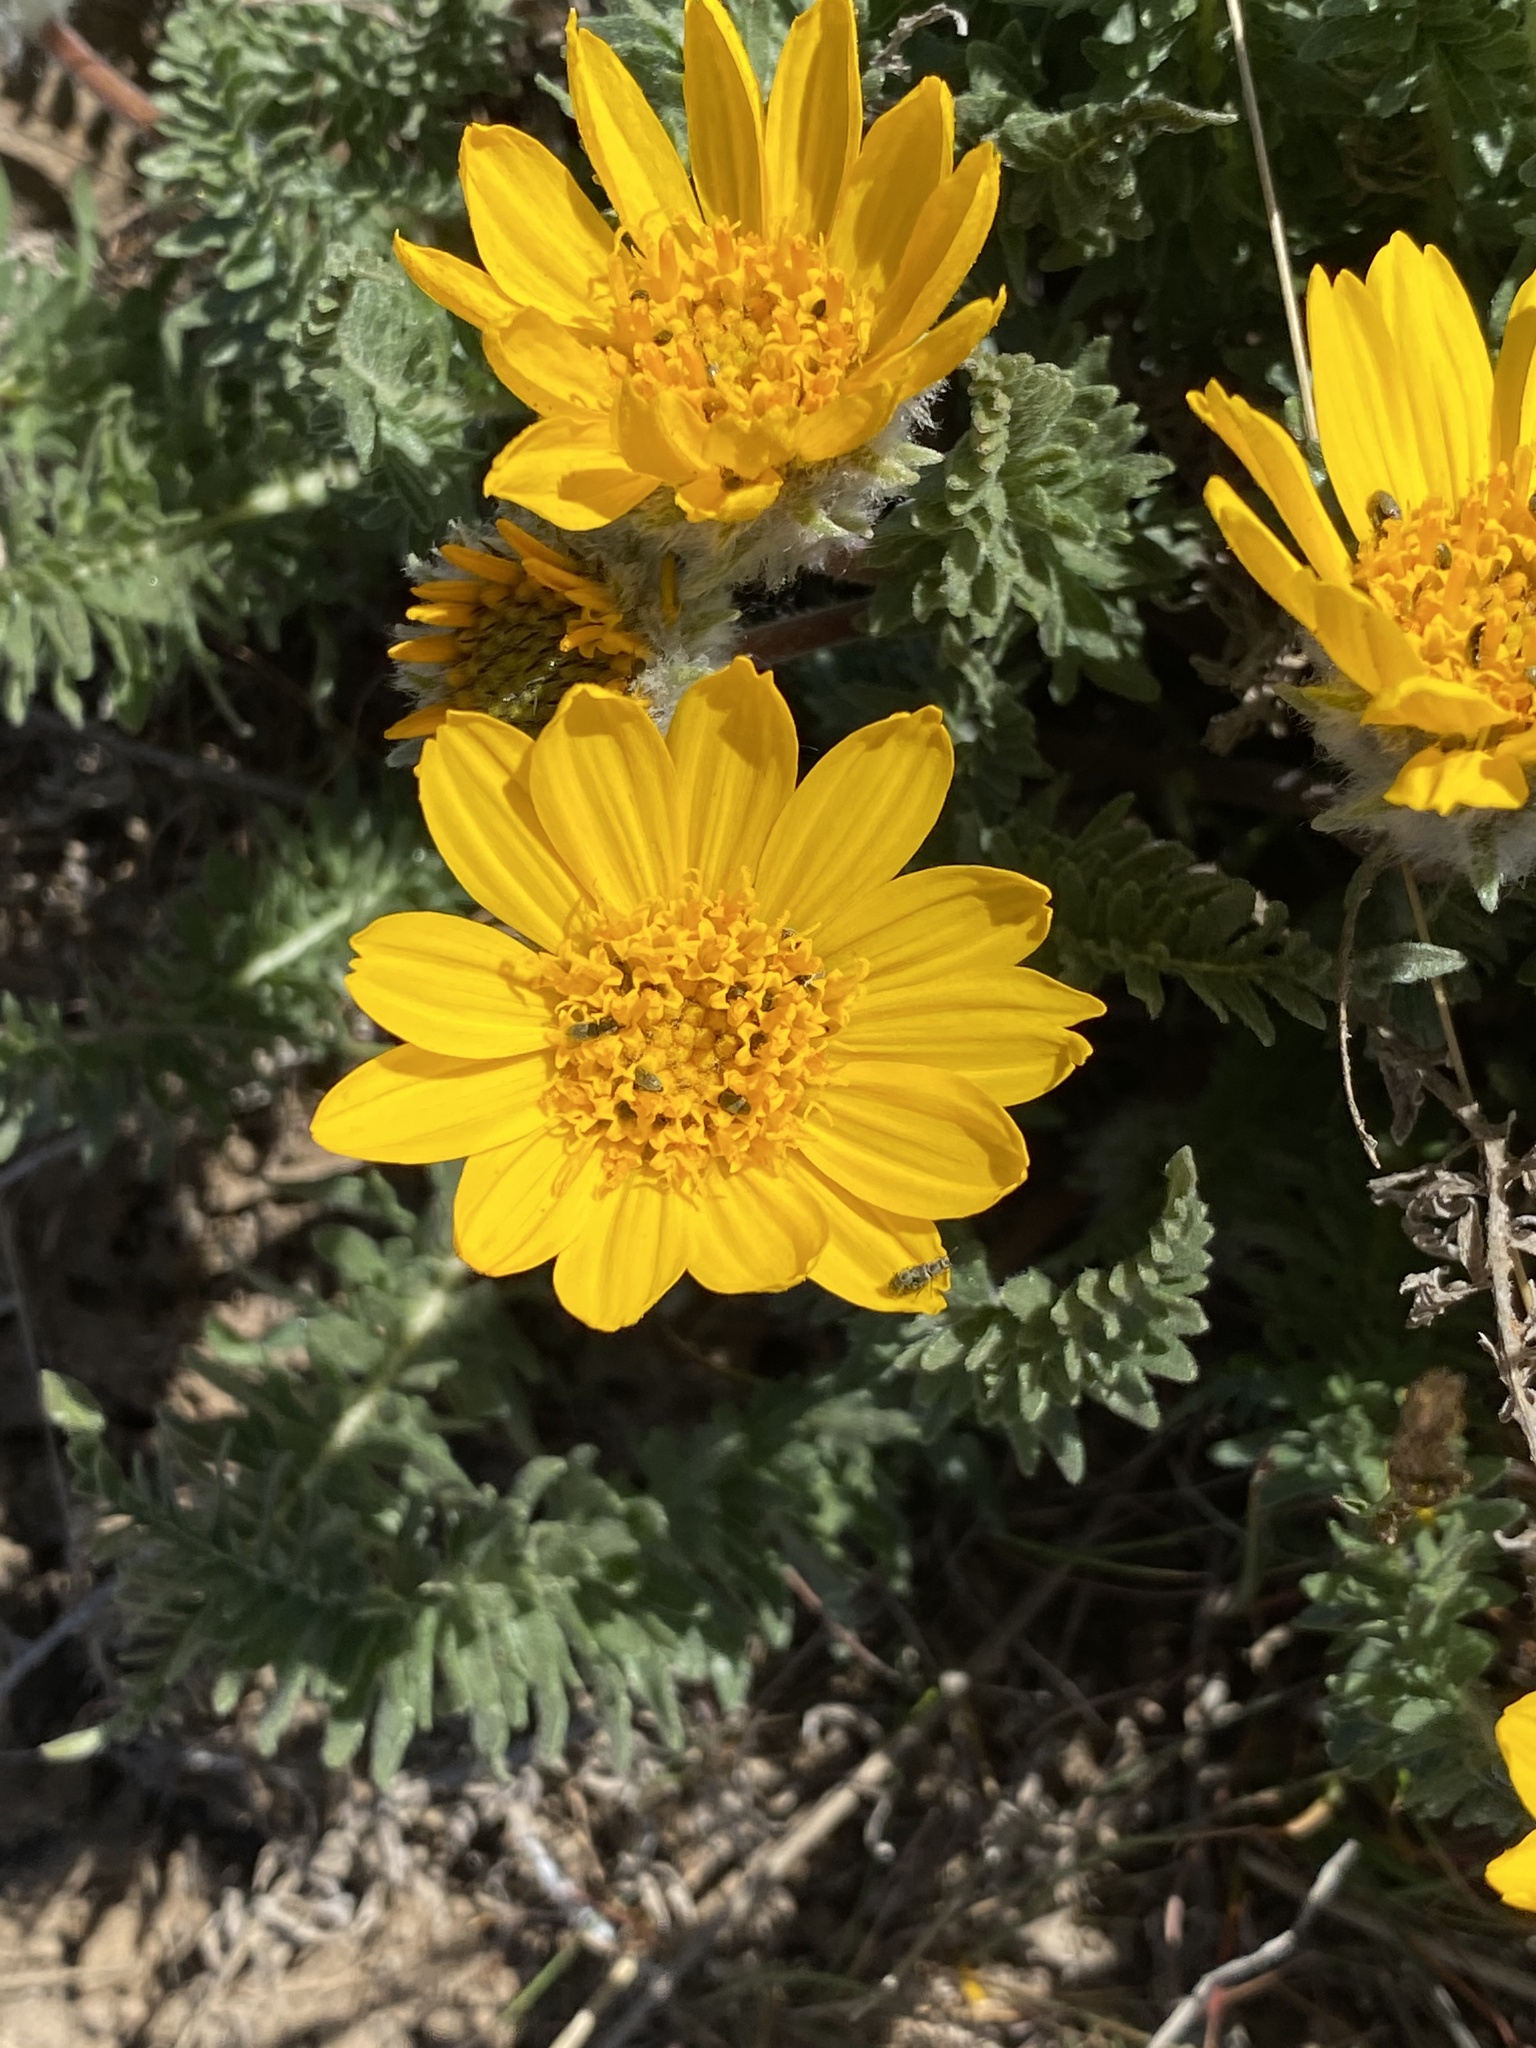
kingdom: Plantae
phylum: Tracheophyta
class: Magnoliopsida
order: Asterales
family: Asteraceae
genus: Balsamorhiza
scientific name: Balsamorhiza hookeri
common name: Hooker's balsamroot
